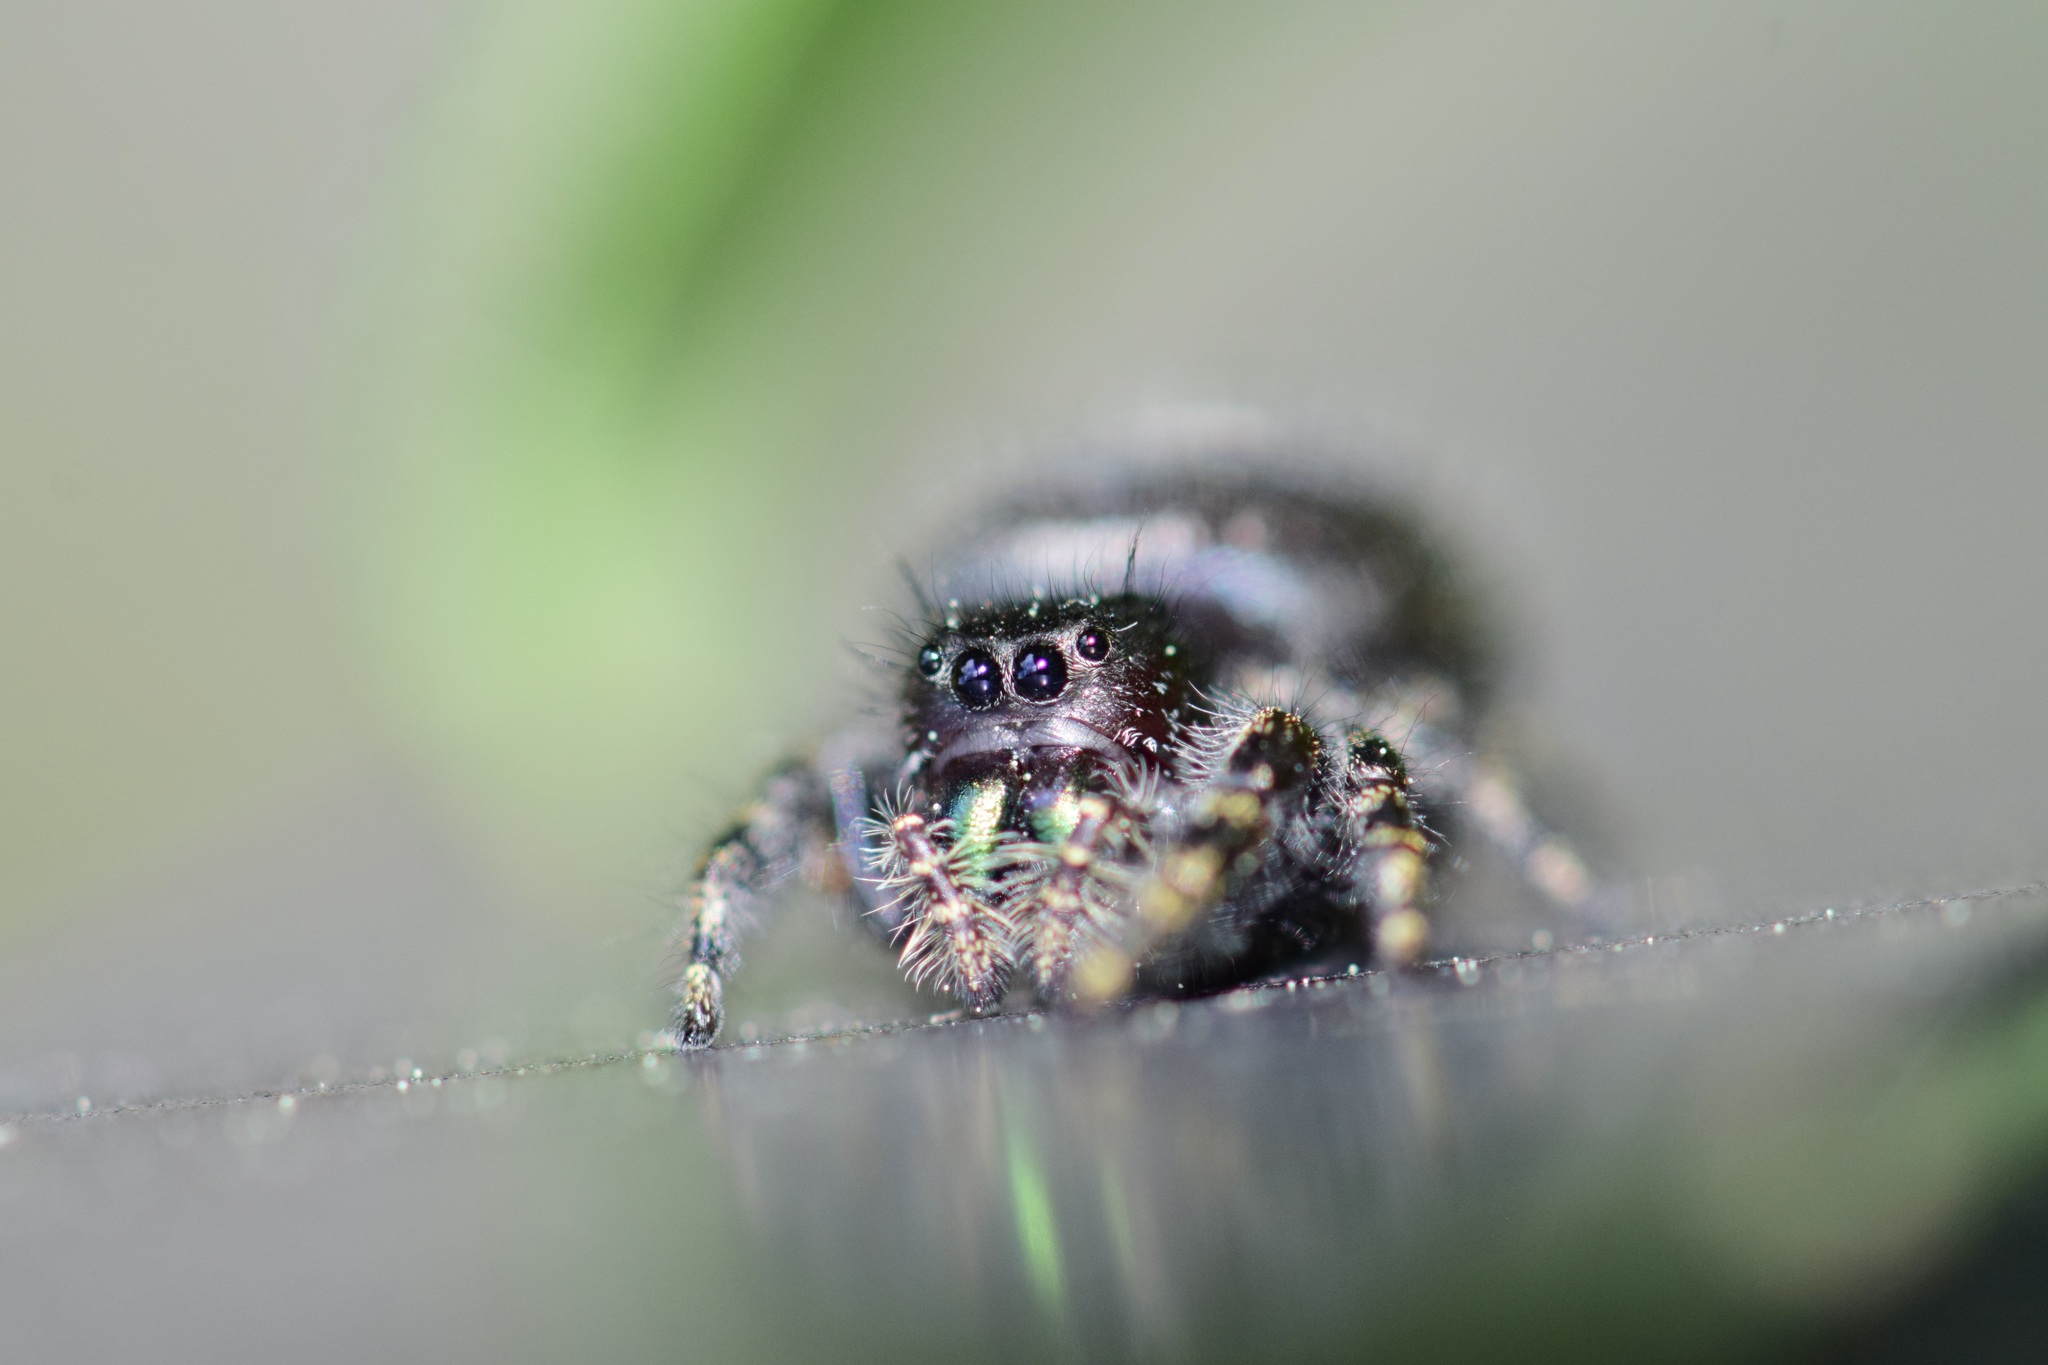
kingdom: Animalia
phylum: Arthropoda
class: Arachnida
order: Araneae
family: Salticidae
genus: Phidippus
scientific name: Phidippus audax
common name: Bold jumper
